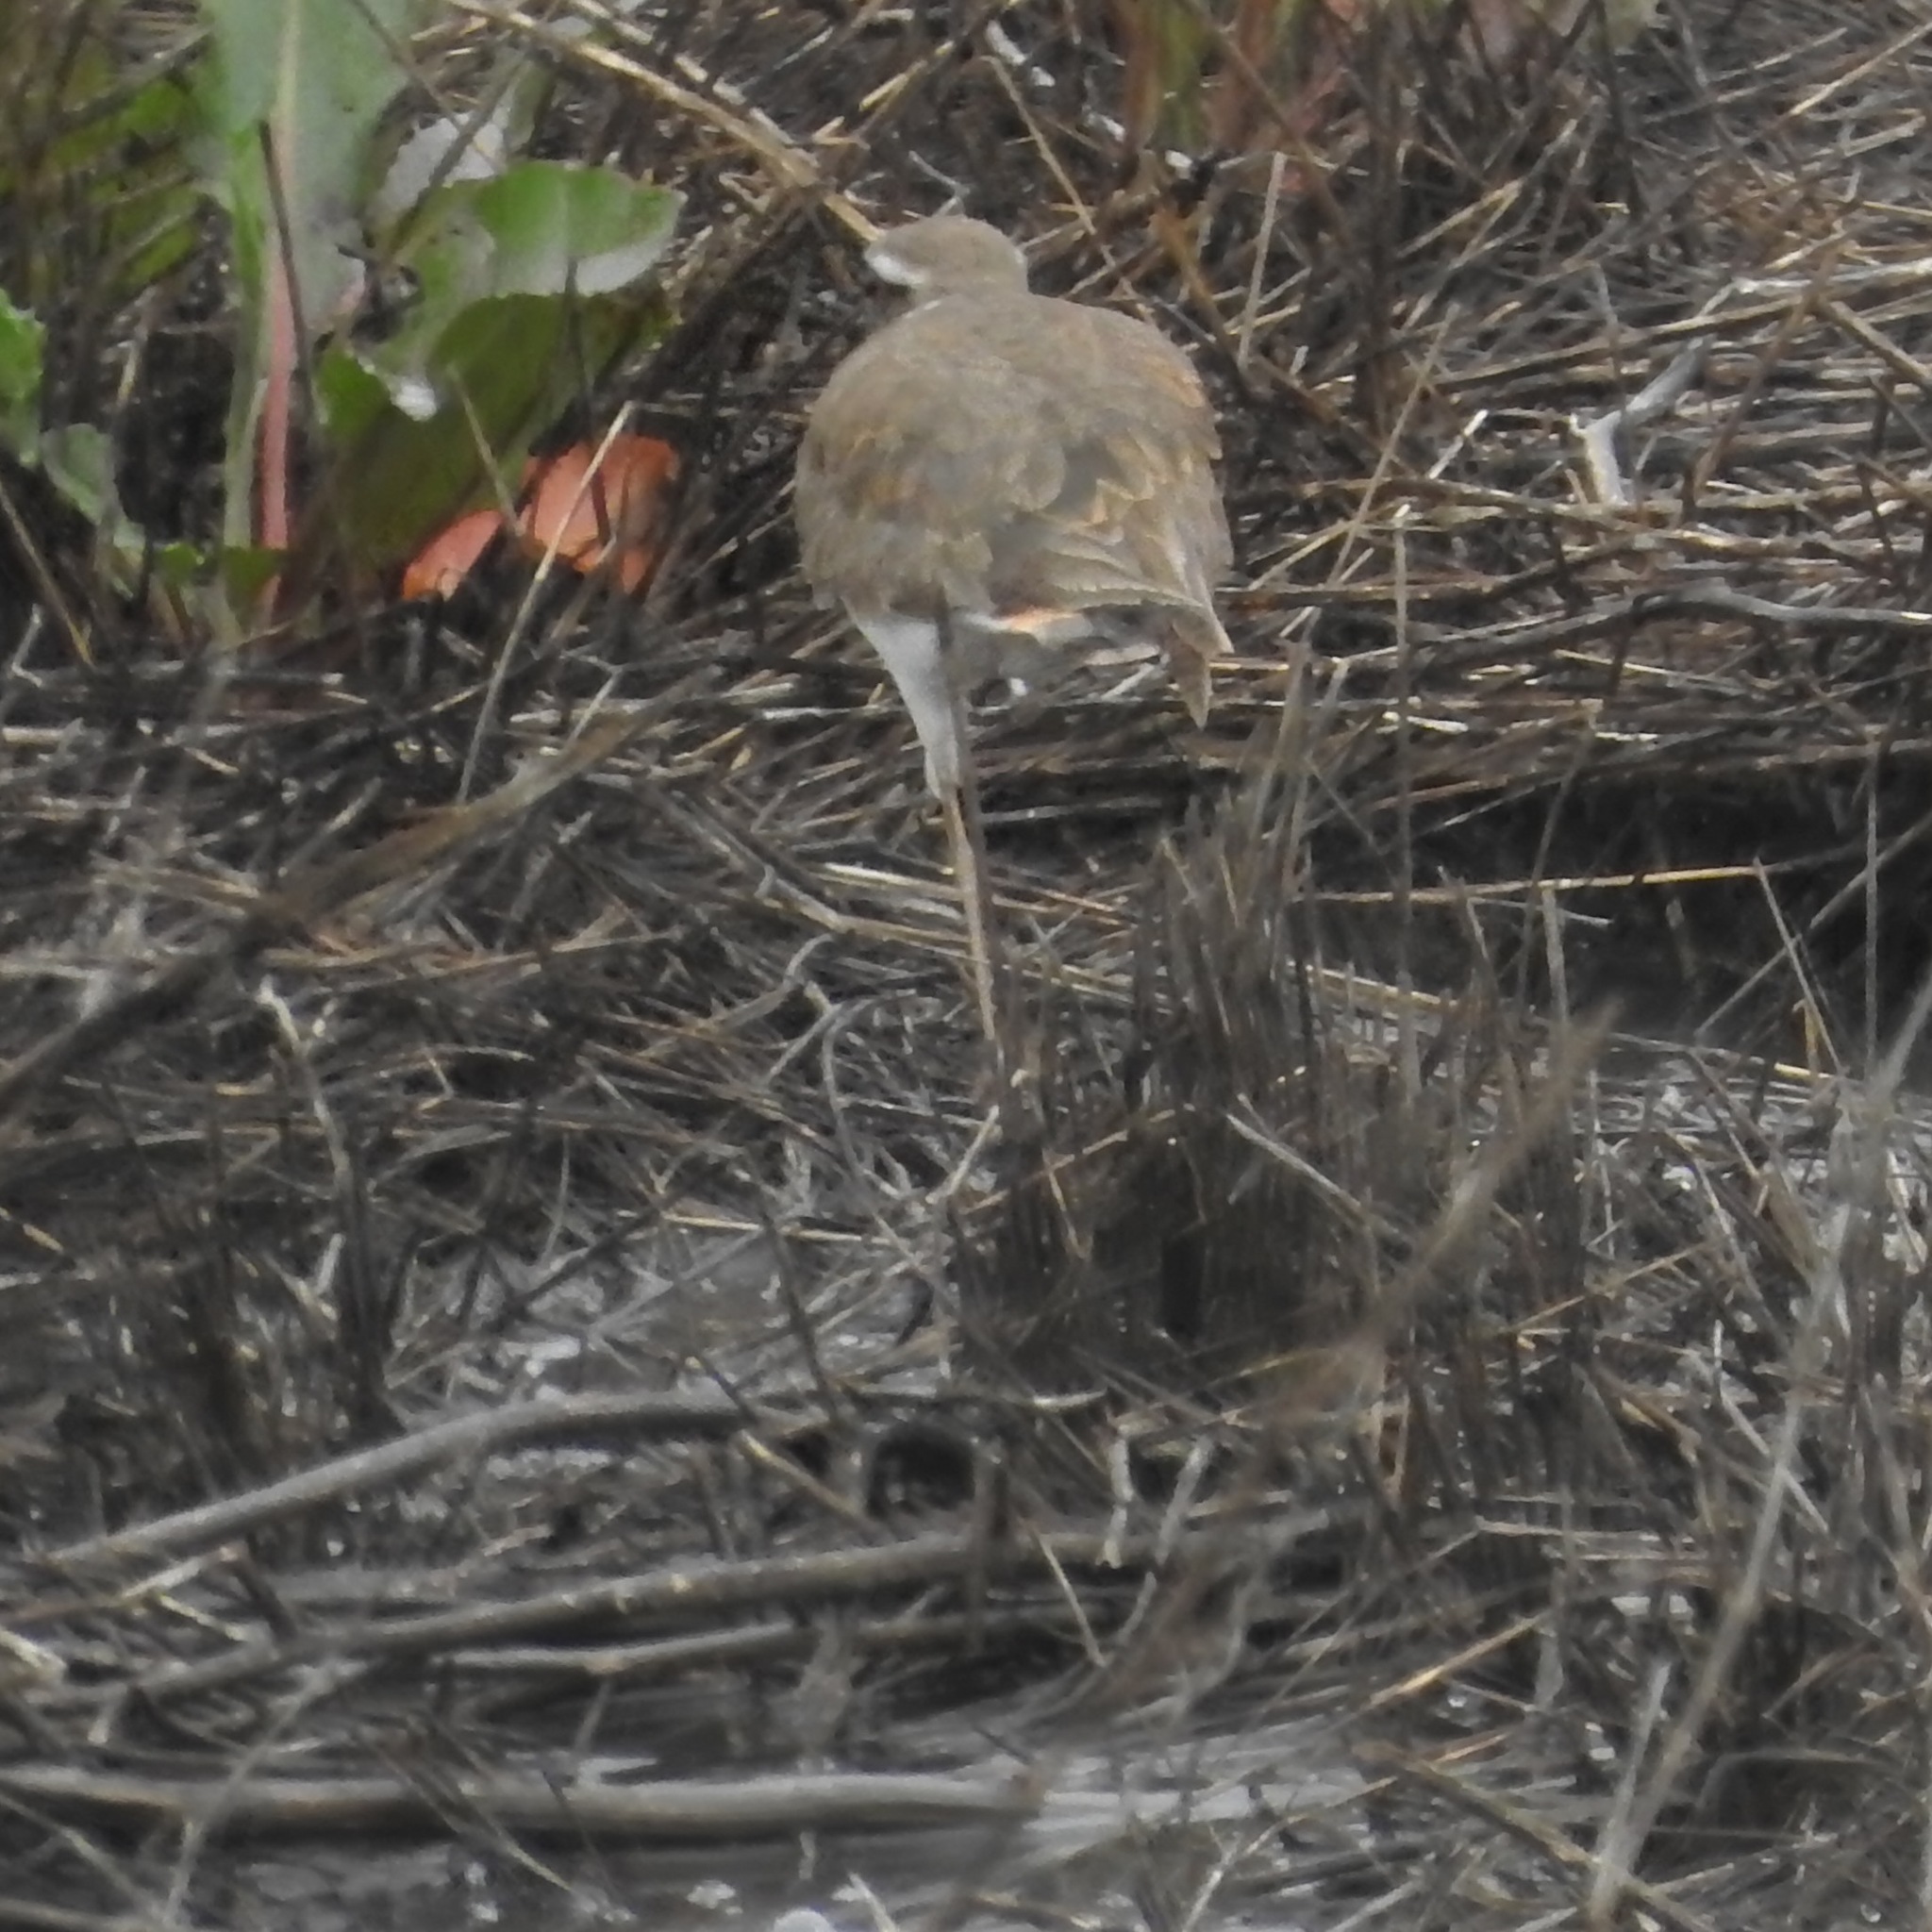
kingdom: Animalia
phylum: Chordata
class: Aves
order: Charadriiformes
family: Charadriidae
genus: Charadrius
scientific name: Charadrius vociferus
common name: Killdeer
